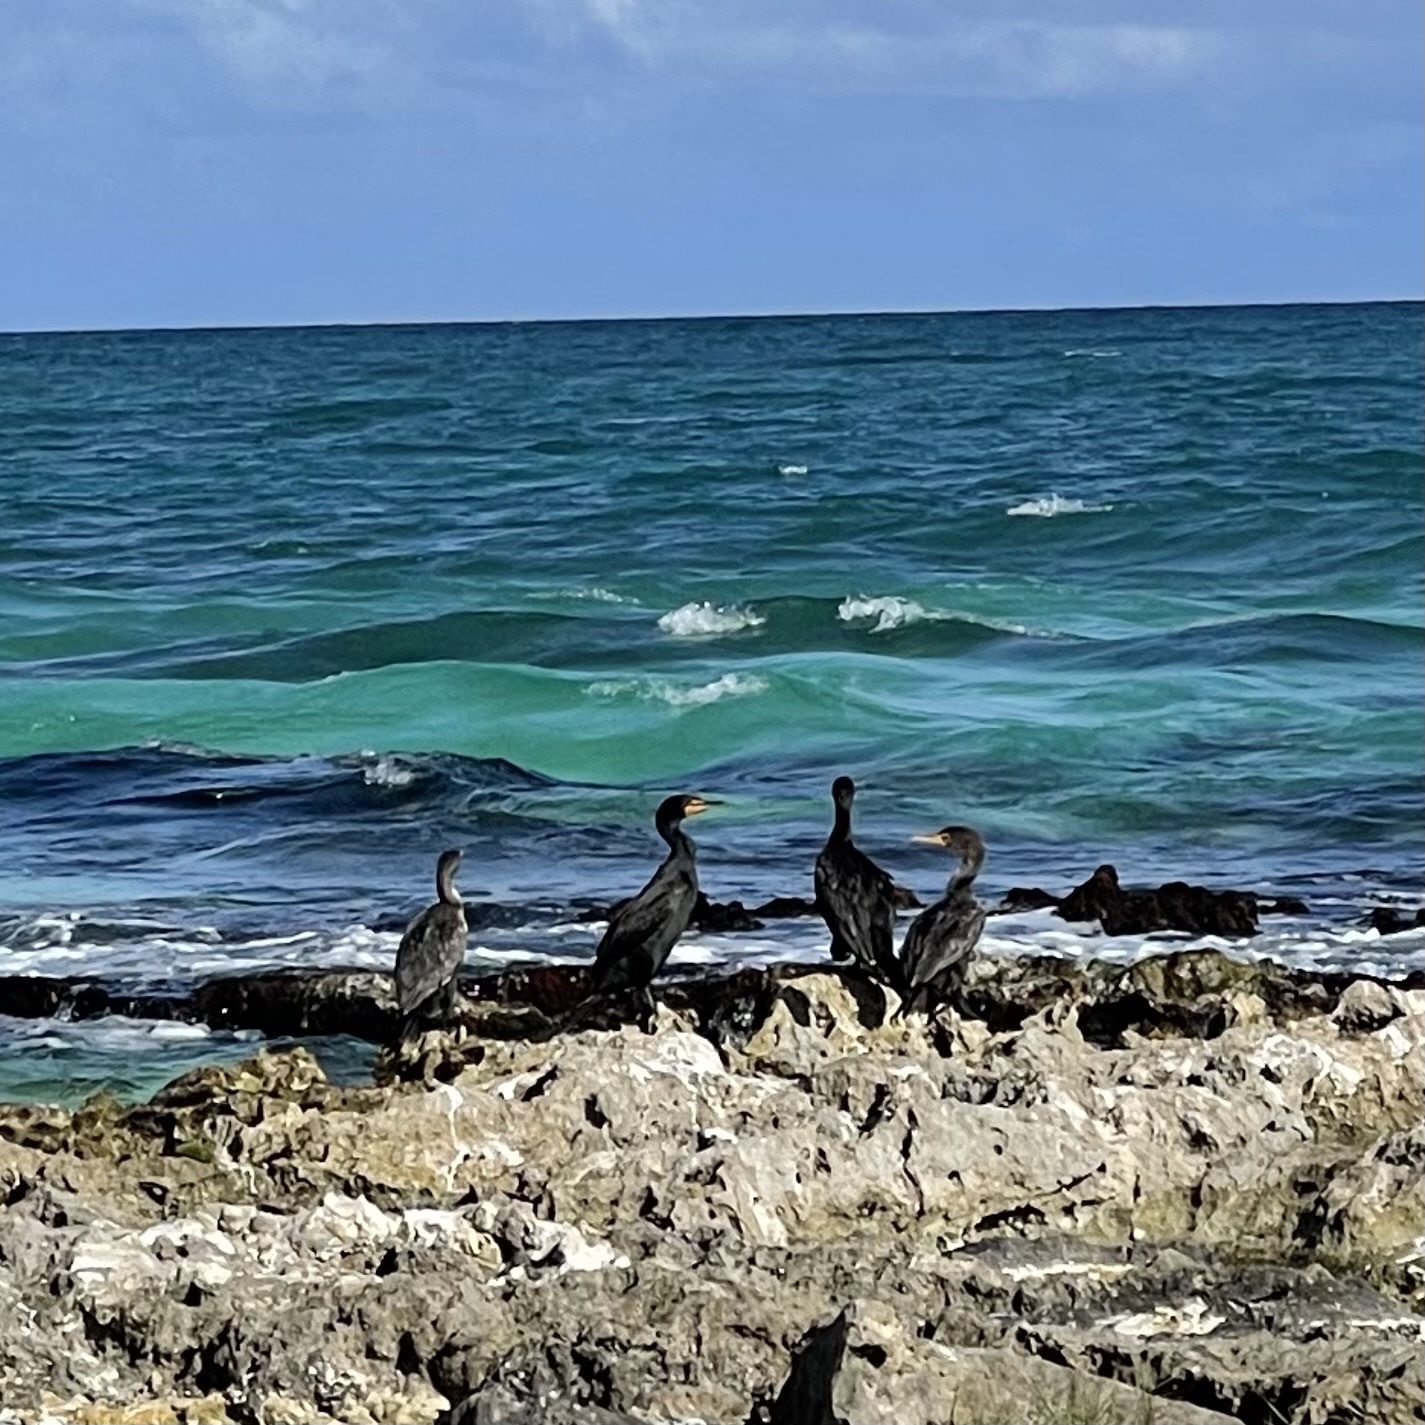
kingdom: Animalia
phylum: Chordata
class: Aves
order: Suliformes
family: Phalacrocoracidae
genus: Phalacrocorax
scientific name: Phalacrocorax auritus
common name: Double-crested cormorant
